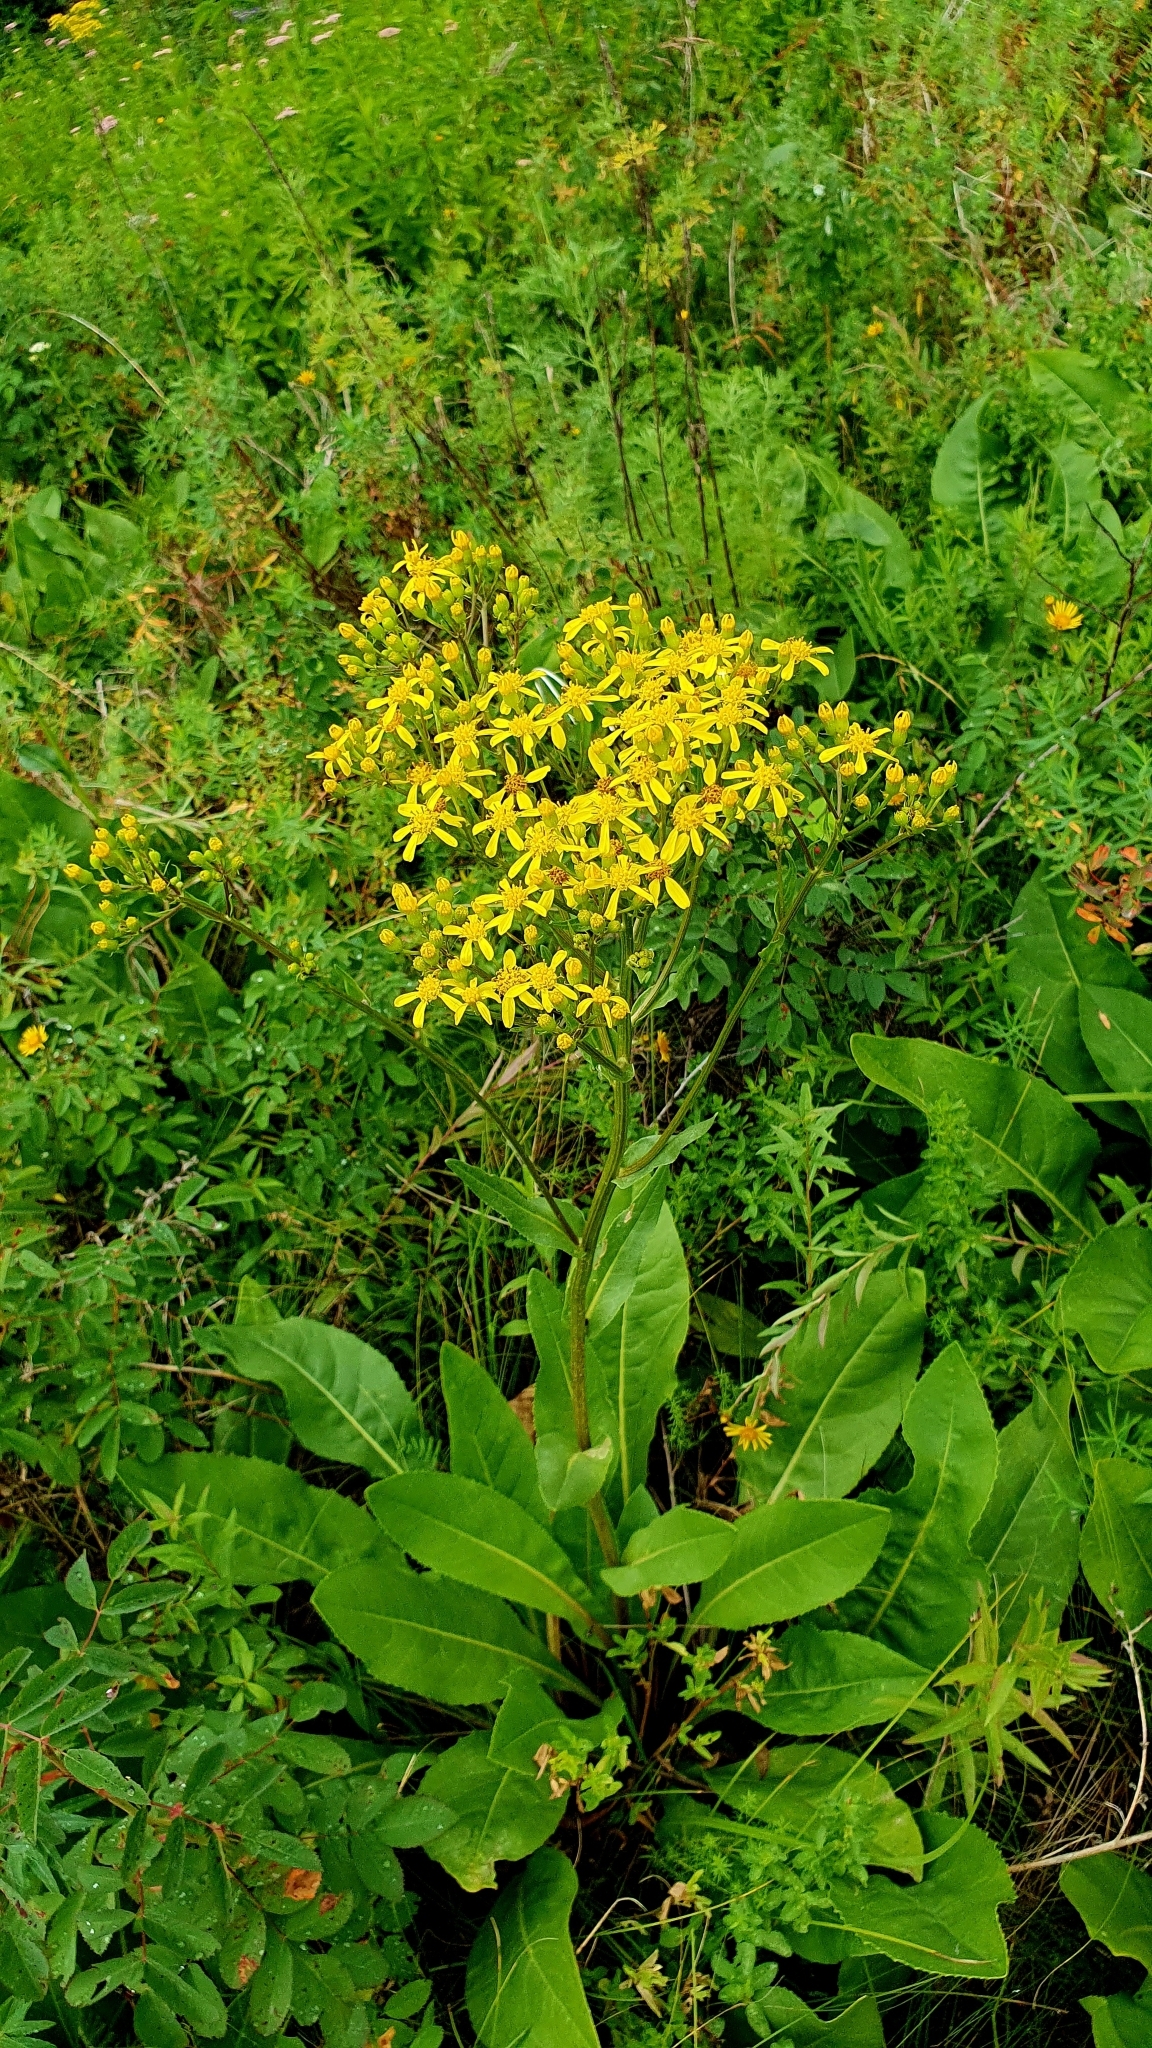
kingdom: Plantae
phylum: Tracheophyta
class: Magnoliopsida
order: Asterales
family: Asteraceae
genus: Senecio
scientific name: Senecio doria
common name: Golden ragwort
